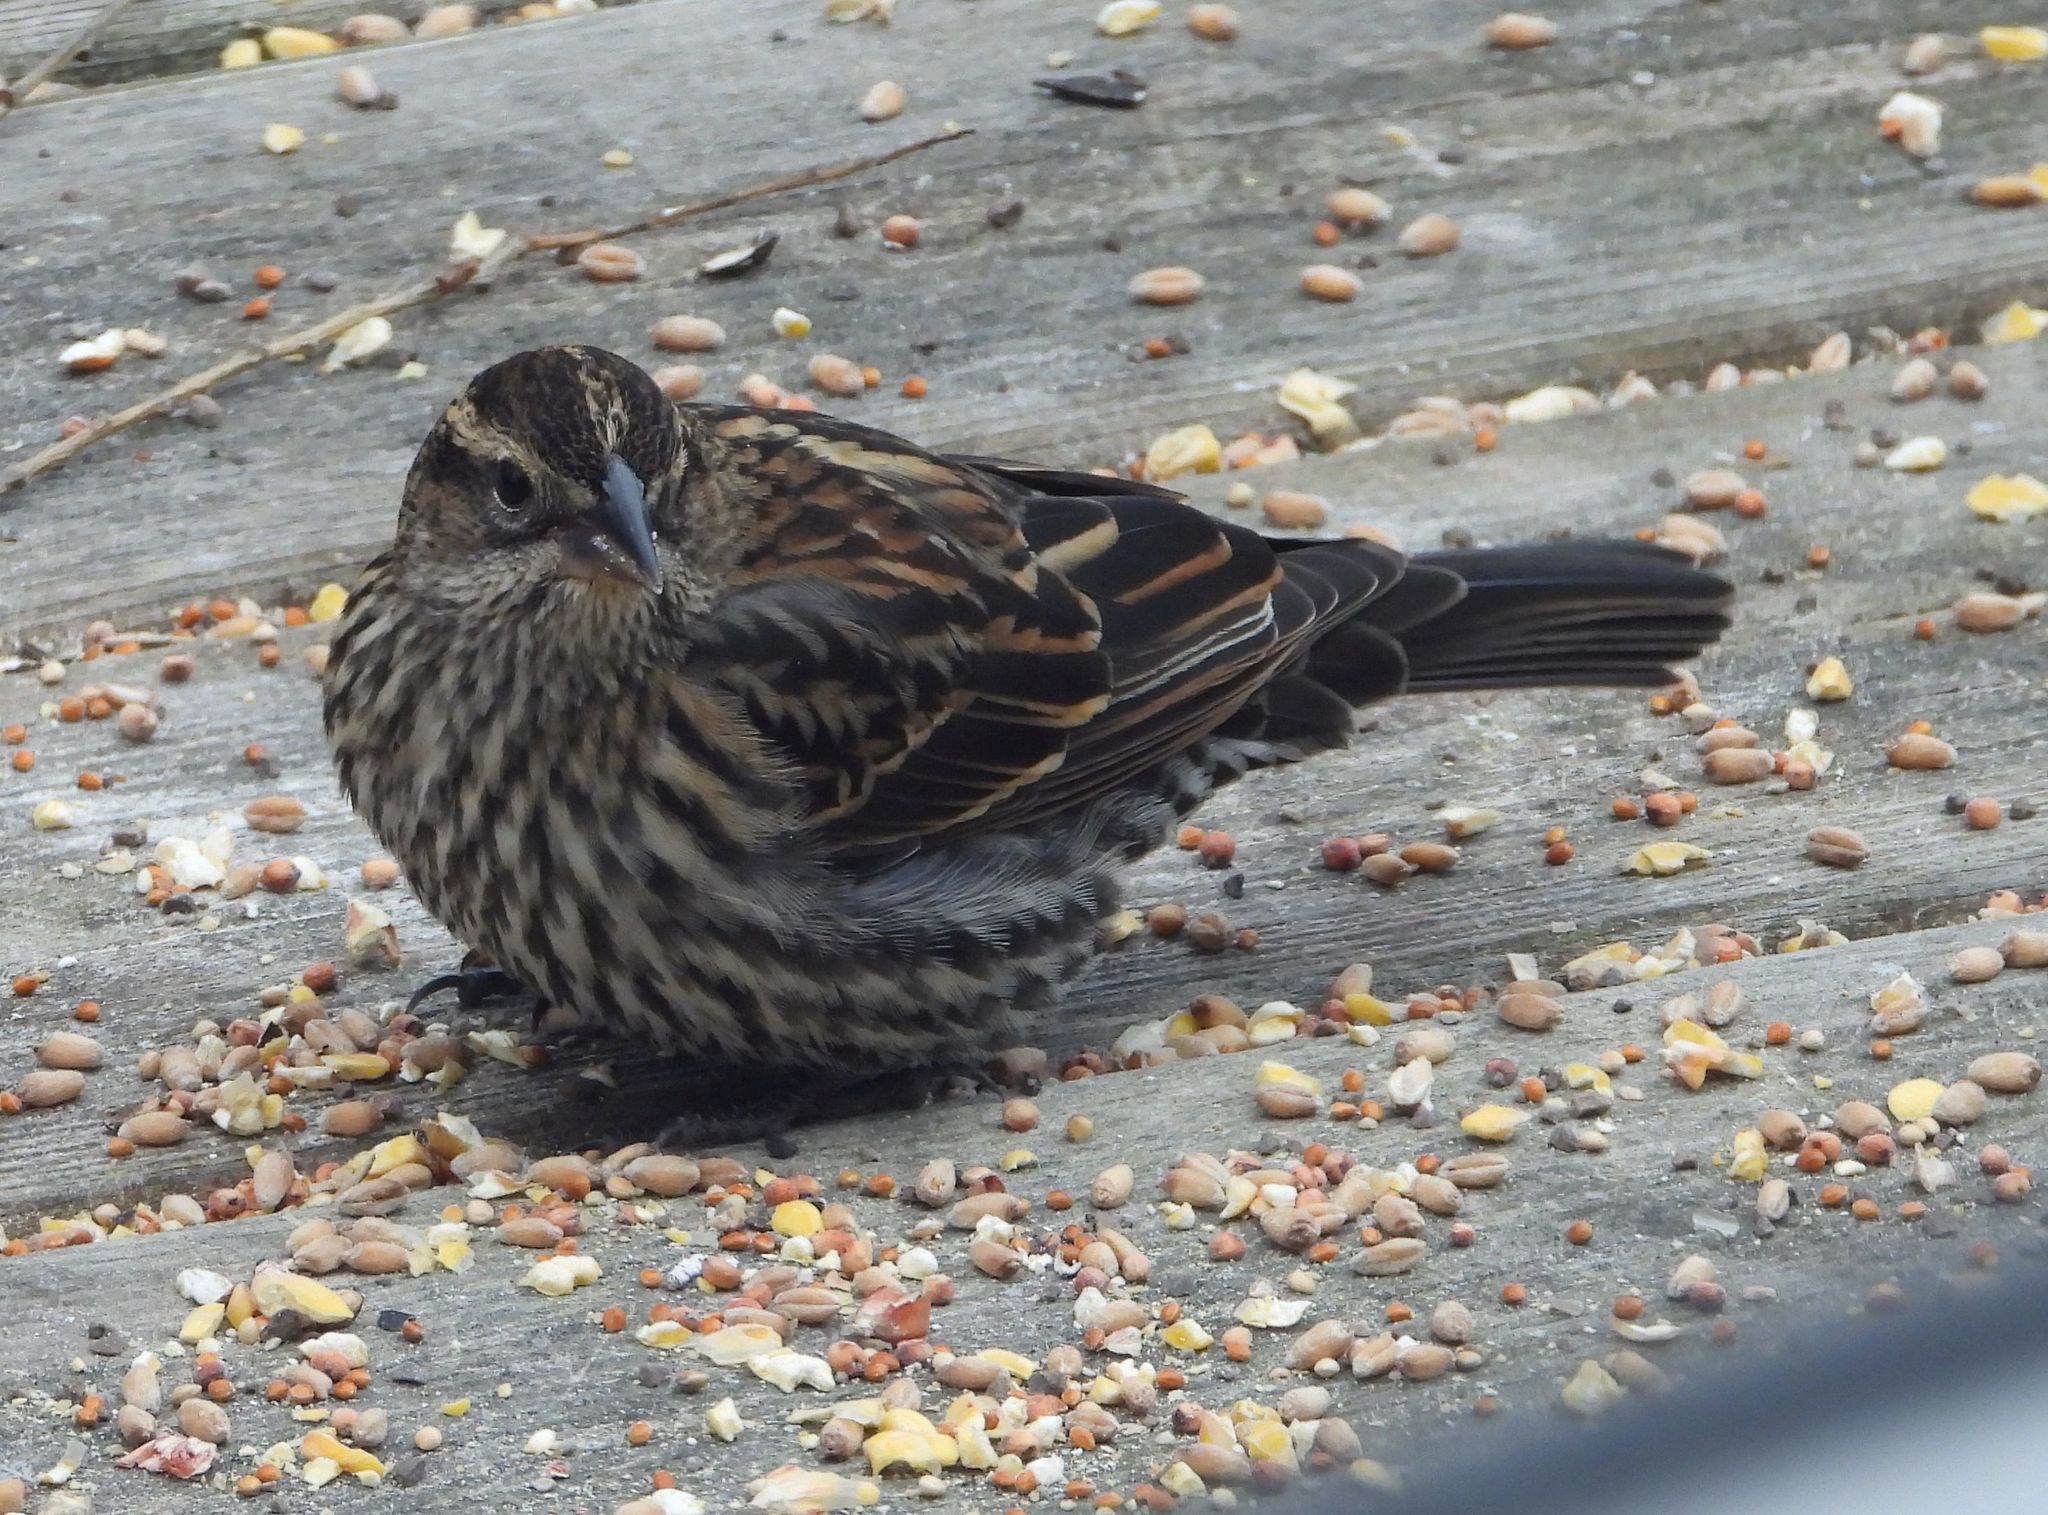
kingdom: Animalia
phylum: Chordata
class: Aves
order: Passeriformes
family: Icteridae
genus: Agelaius
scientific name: Agelaius phoeniceus
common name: Red-winged blackbird
